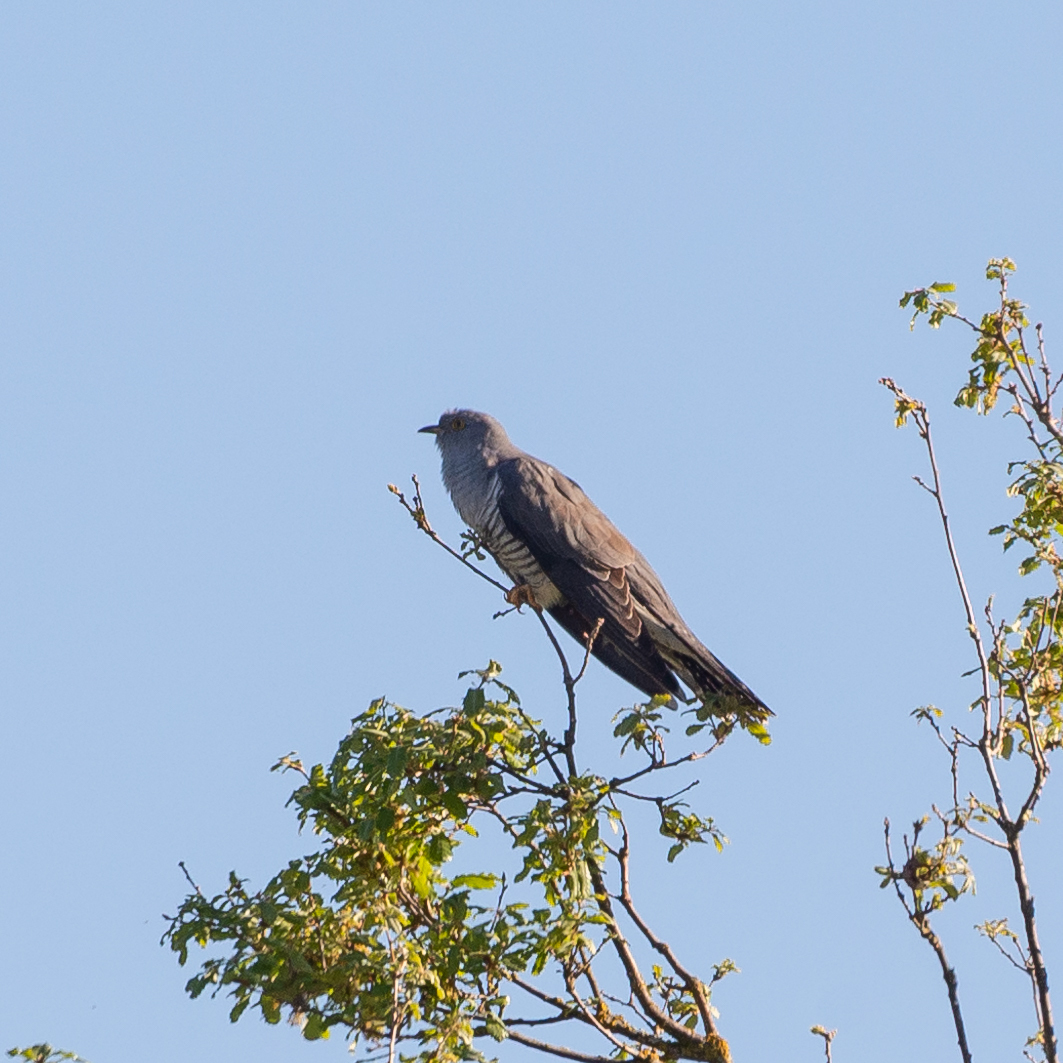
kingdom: Animalia
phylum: Chordata
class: Aves
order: Cuculiformes
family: Cuculidae
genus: Cuculus
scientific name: Cuculus canorus
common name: Common cuckoo
